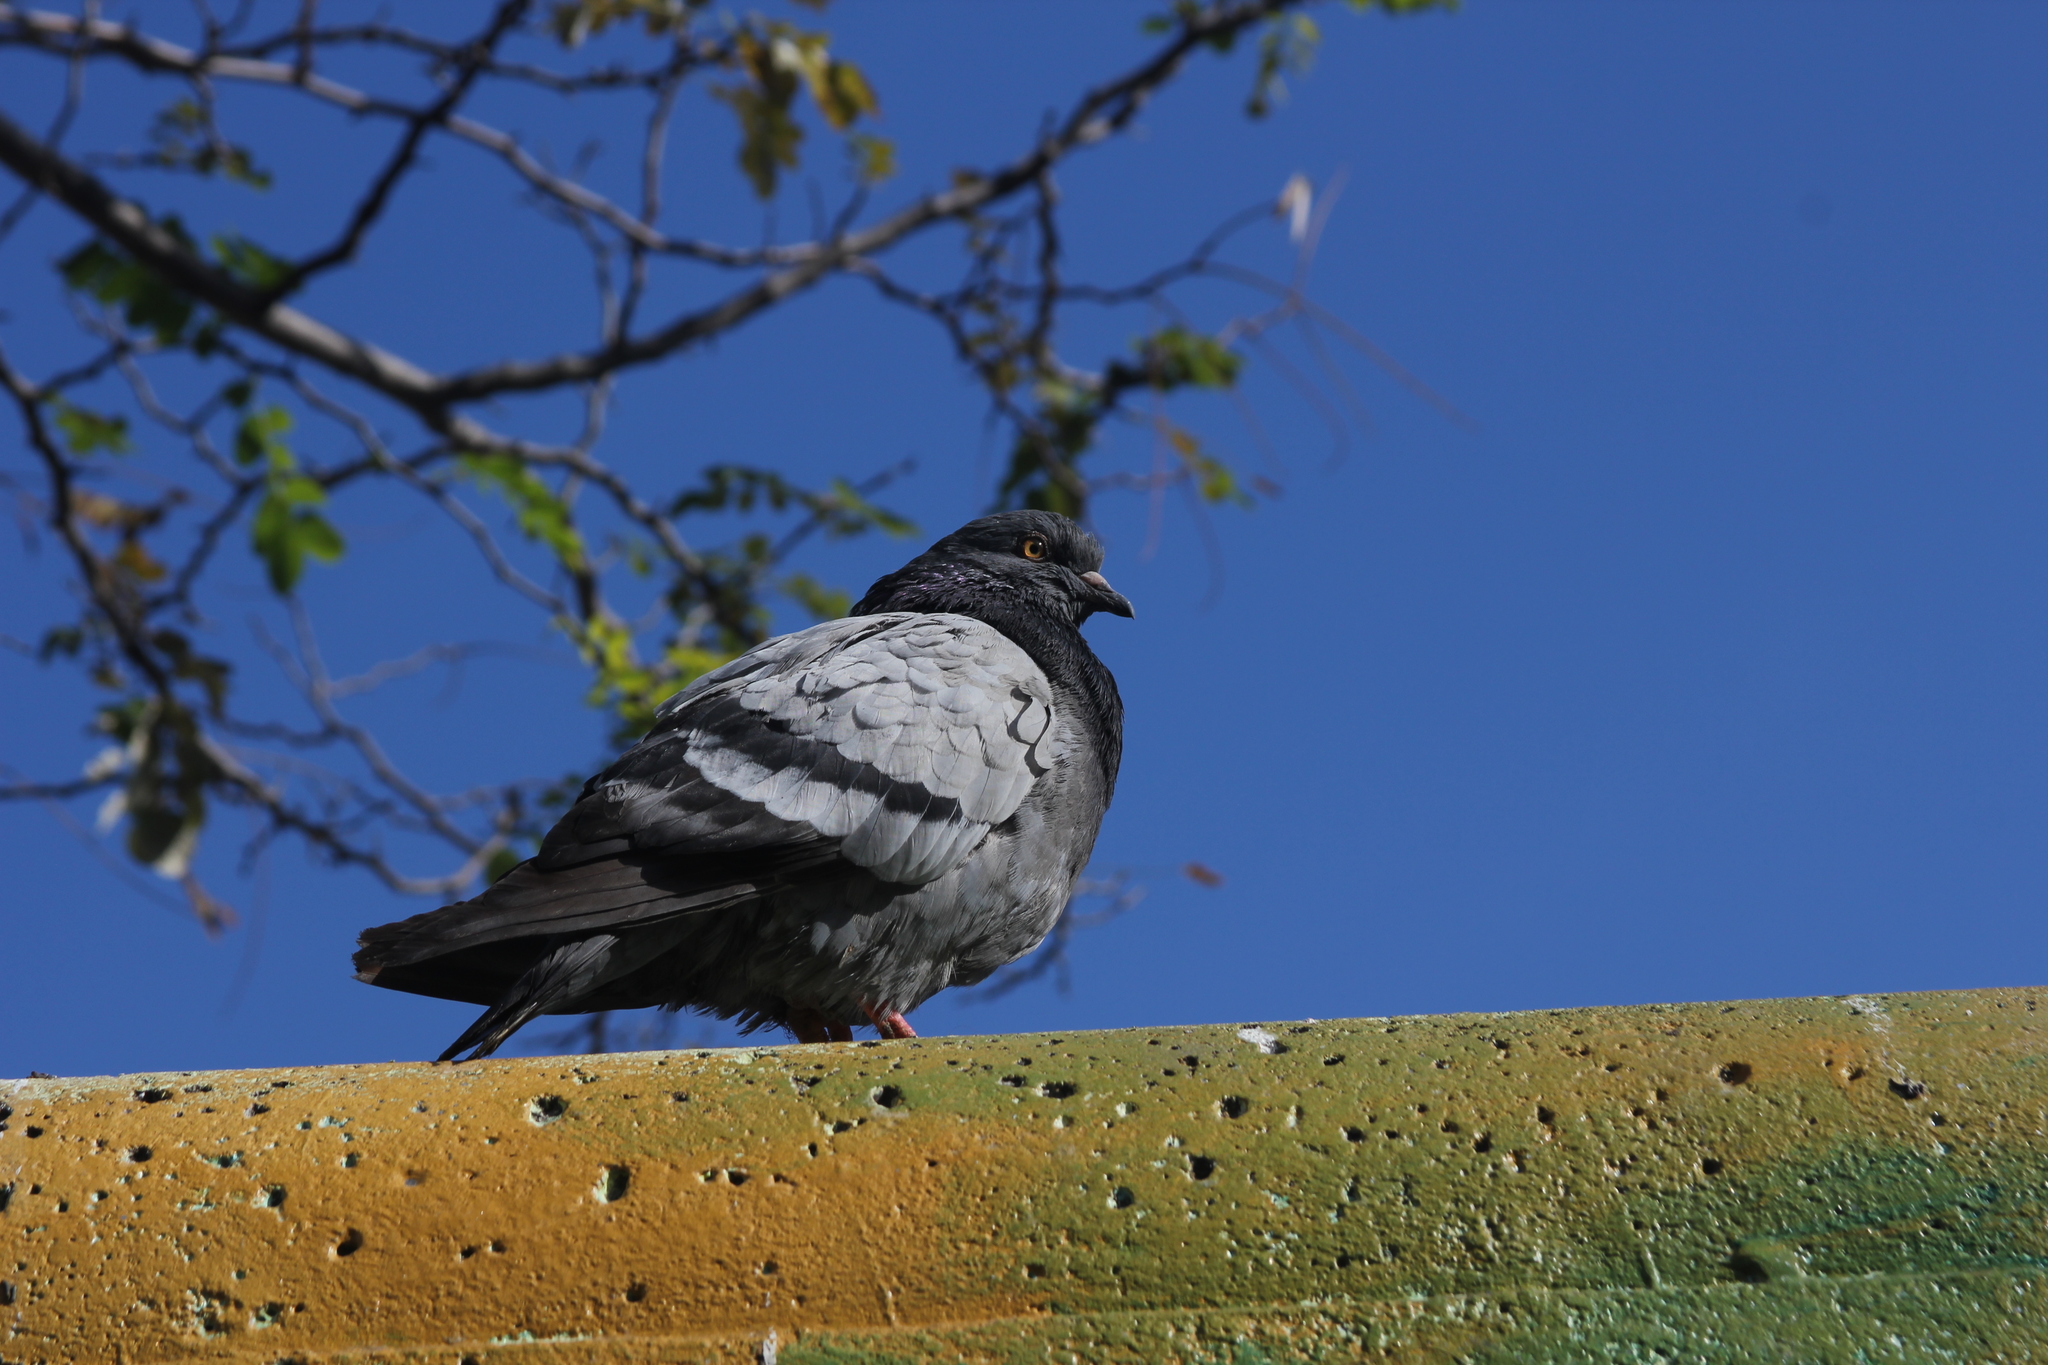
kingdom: Animalia
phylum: Chordata
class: Aves
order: Columbiformes
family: Columbidae
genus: Columba
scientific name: Columba livia
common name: Rock pigeon
